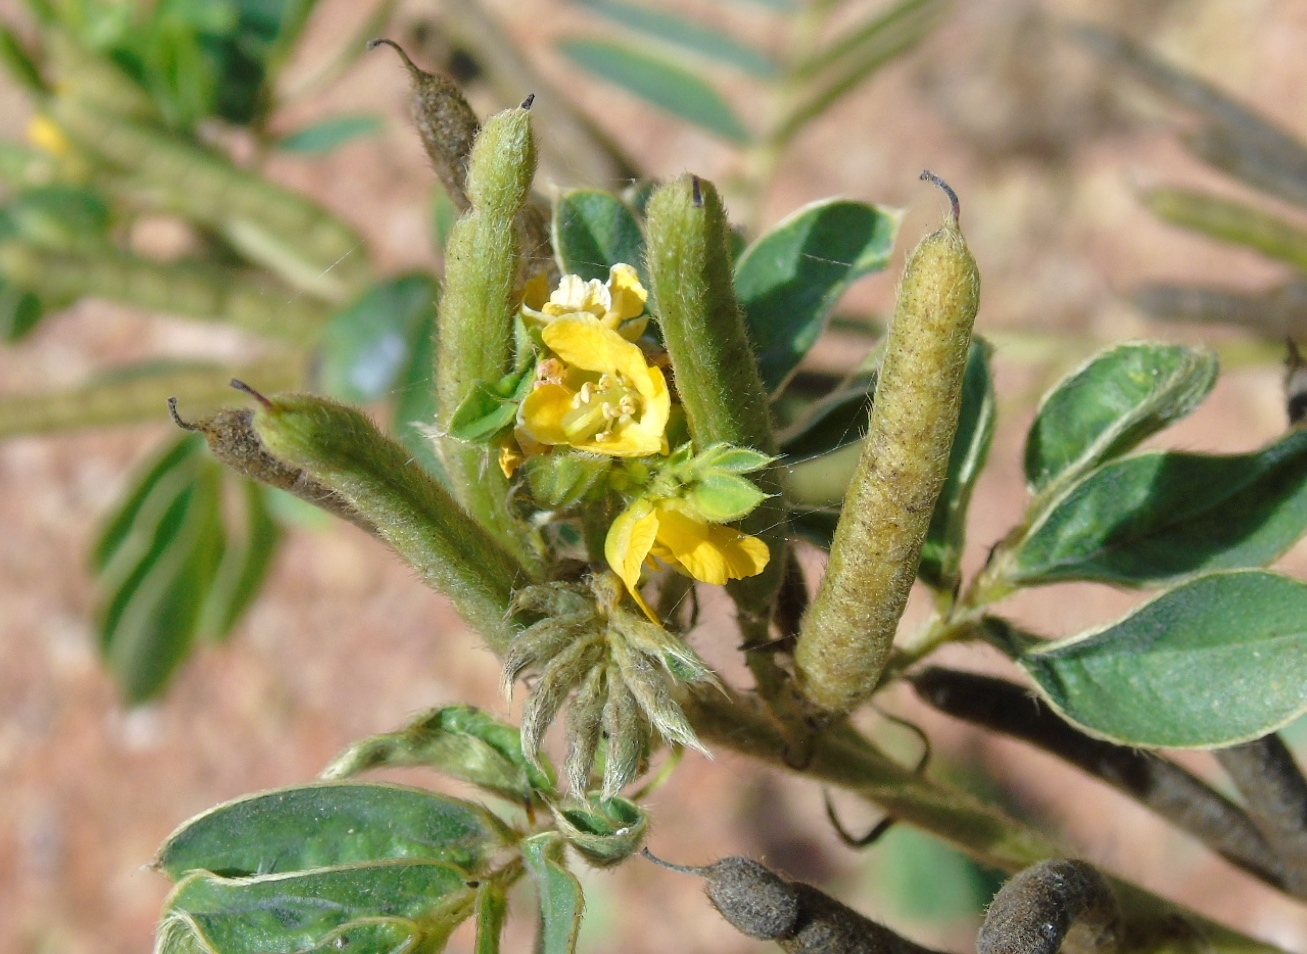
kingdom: Plantae
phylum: Tracheophyta
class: Magnoliopsida
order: Fabales
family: Fabaceae
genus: Senna
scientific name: Senna uniflora
